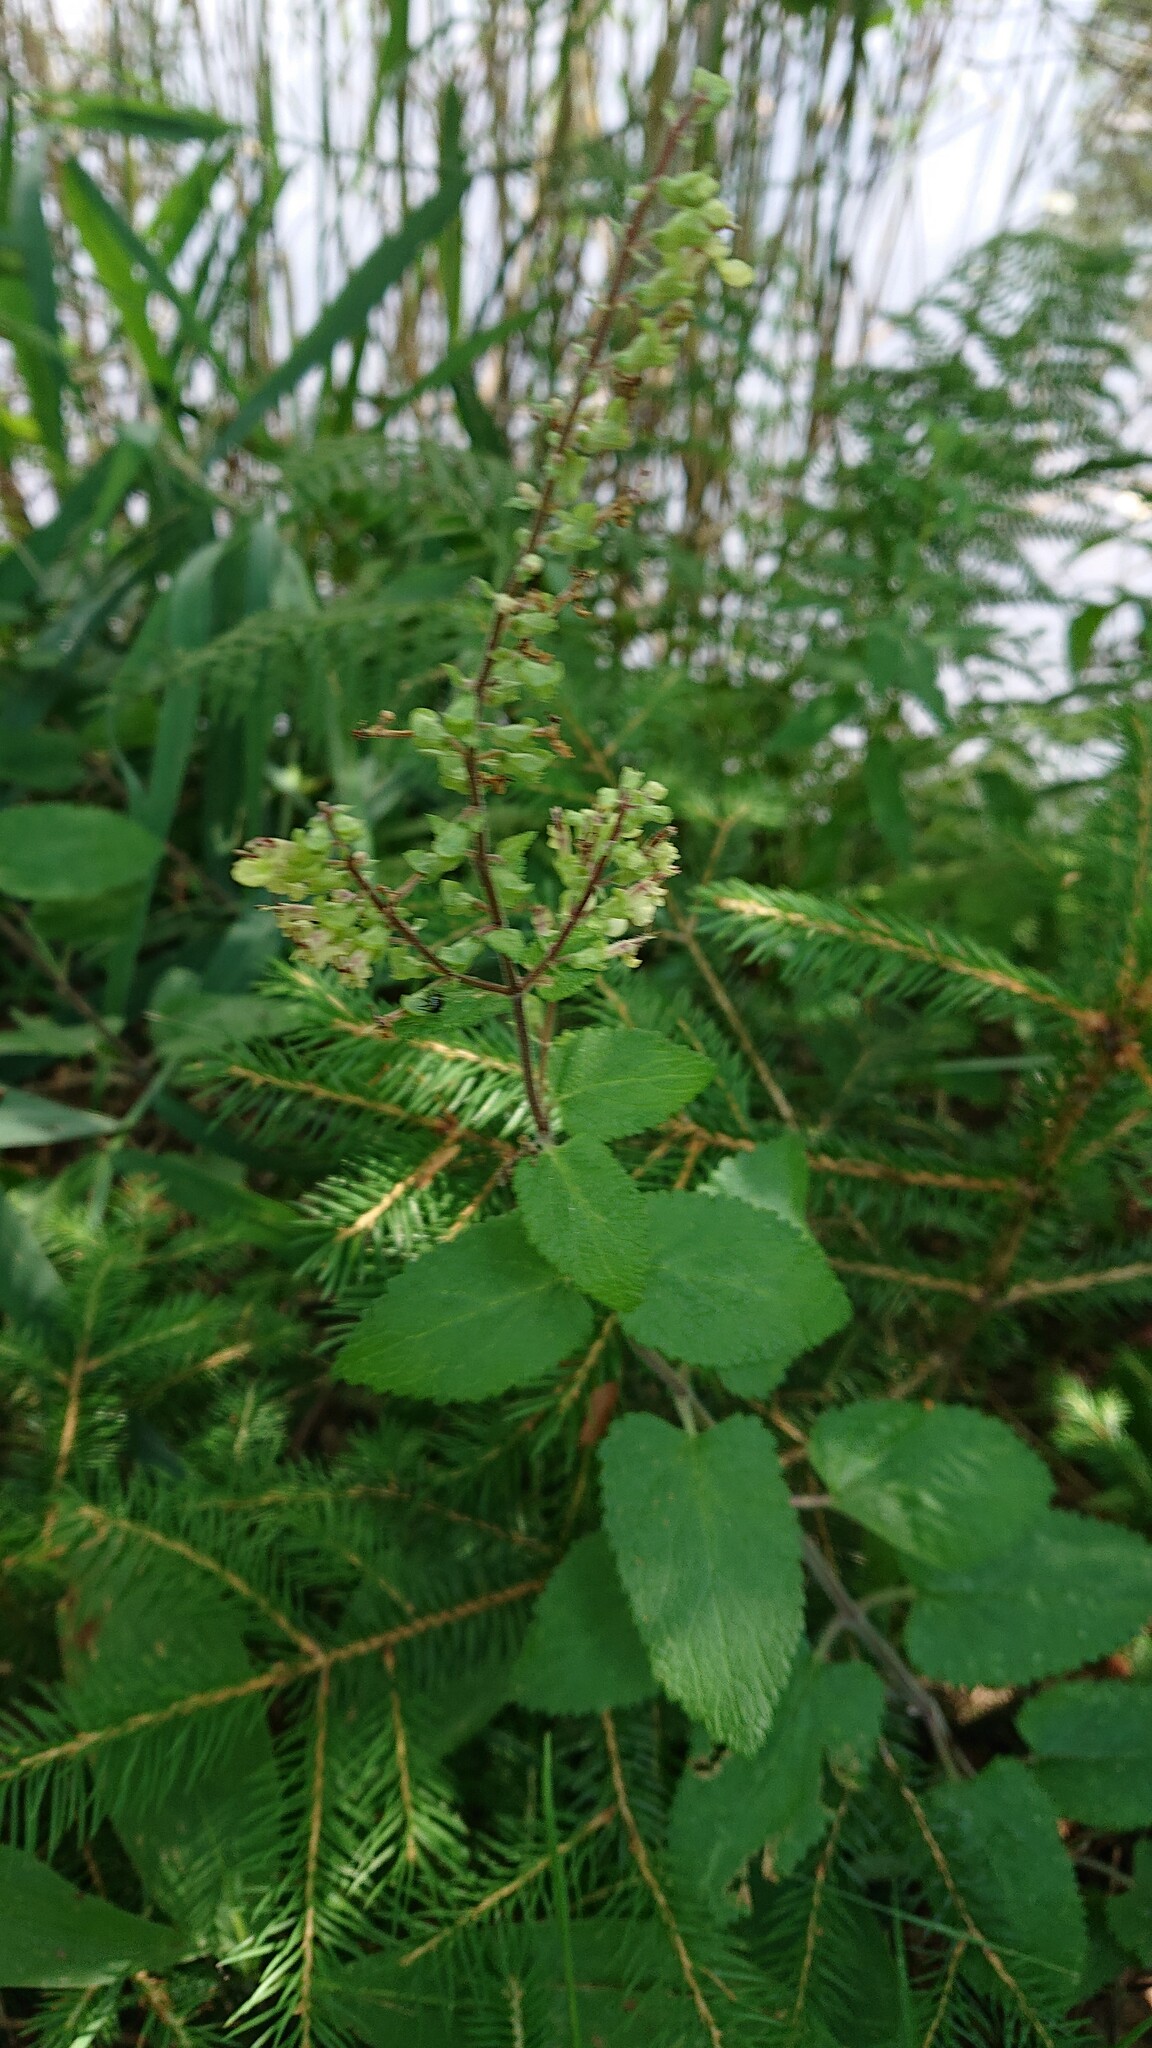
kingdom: Plantae
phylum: Tracheophyta
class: Magnoliopsida
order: Lamiales
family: Lamiaceae
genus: Teucrium
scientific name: Teucrium scorodonia
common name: Woodland germander
